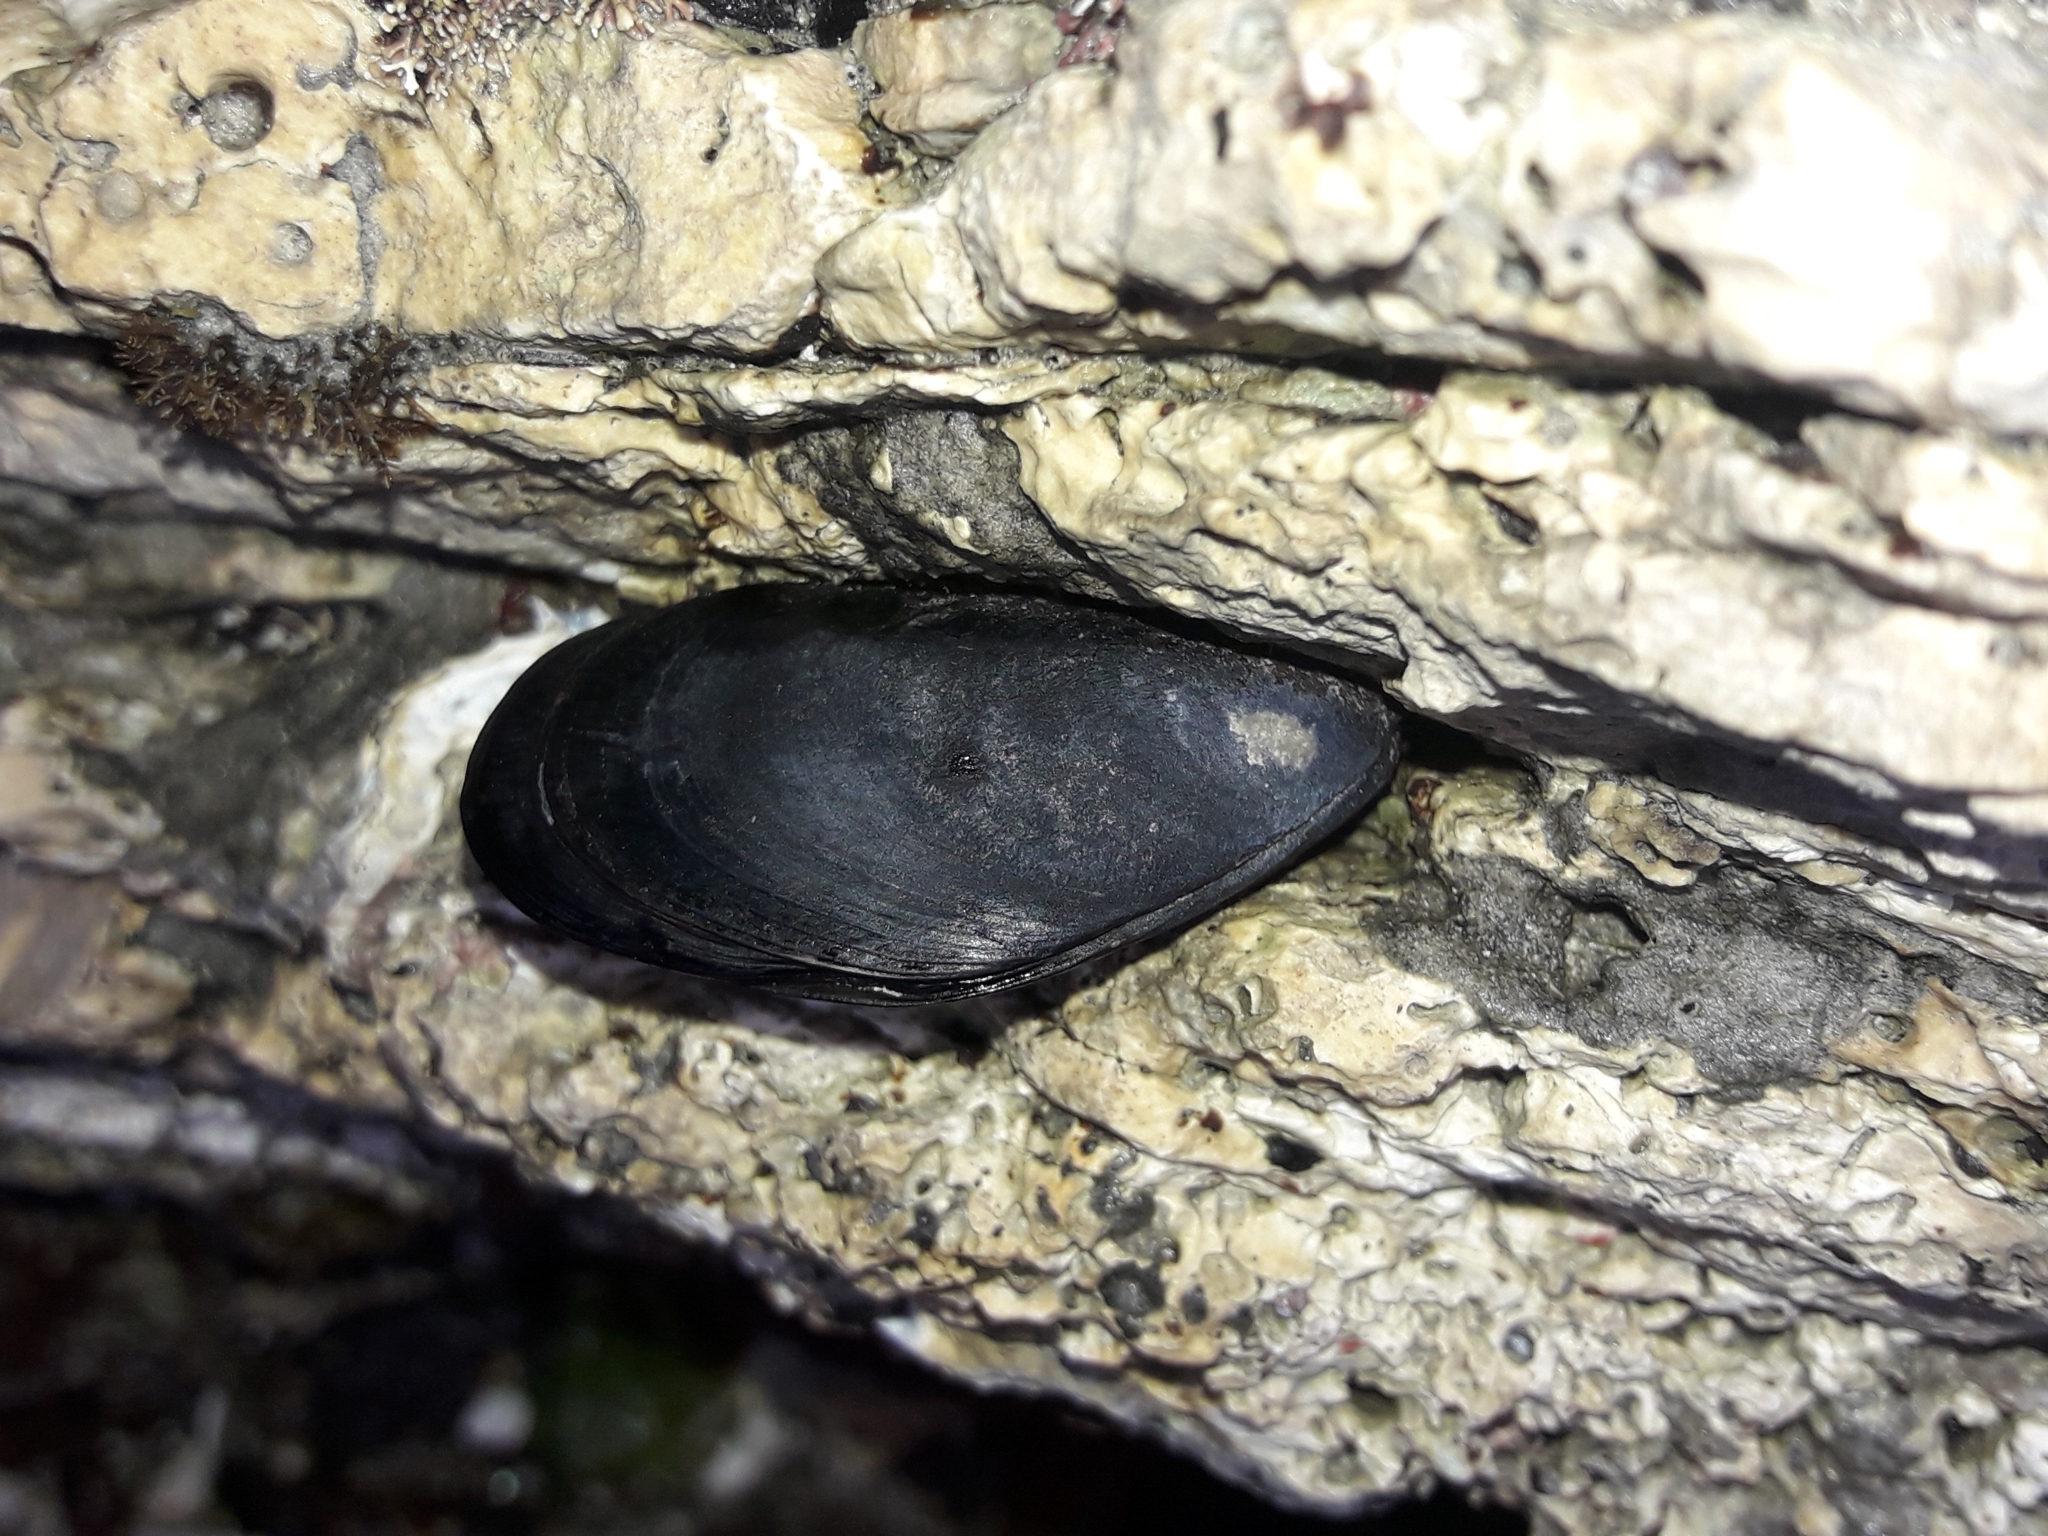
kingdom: Animalia
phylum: Mollusca
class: Bivalvia
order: Mytilida
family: Mytilidae
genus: Mytilus
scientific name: Mytilus planulatus
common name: Australian mussel
